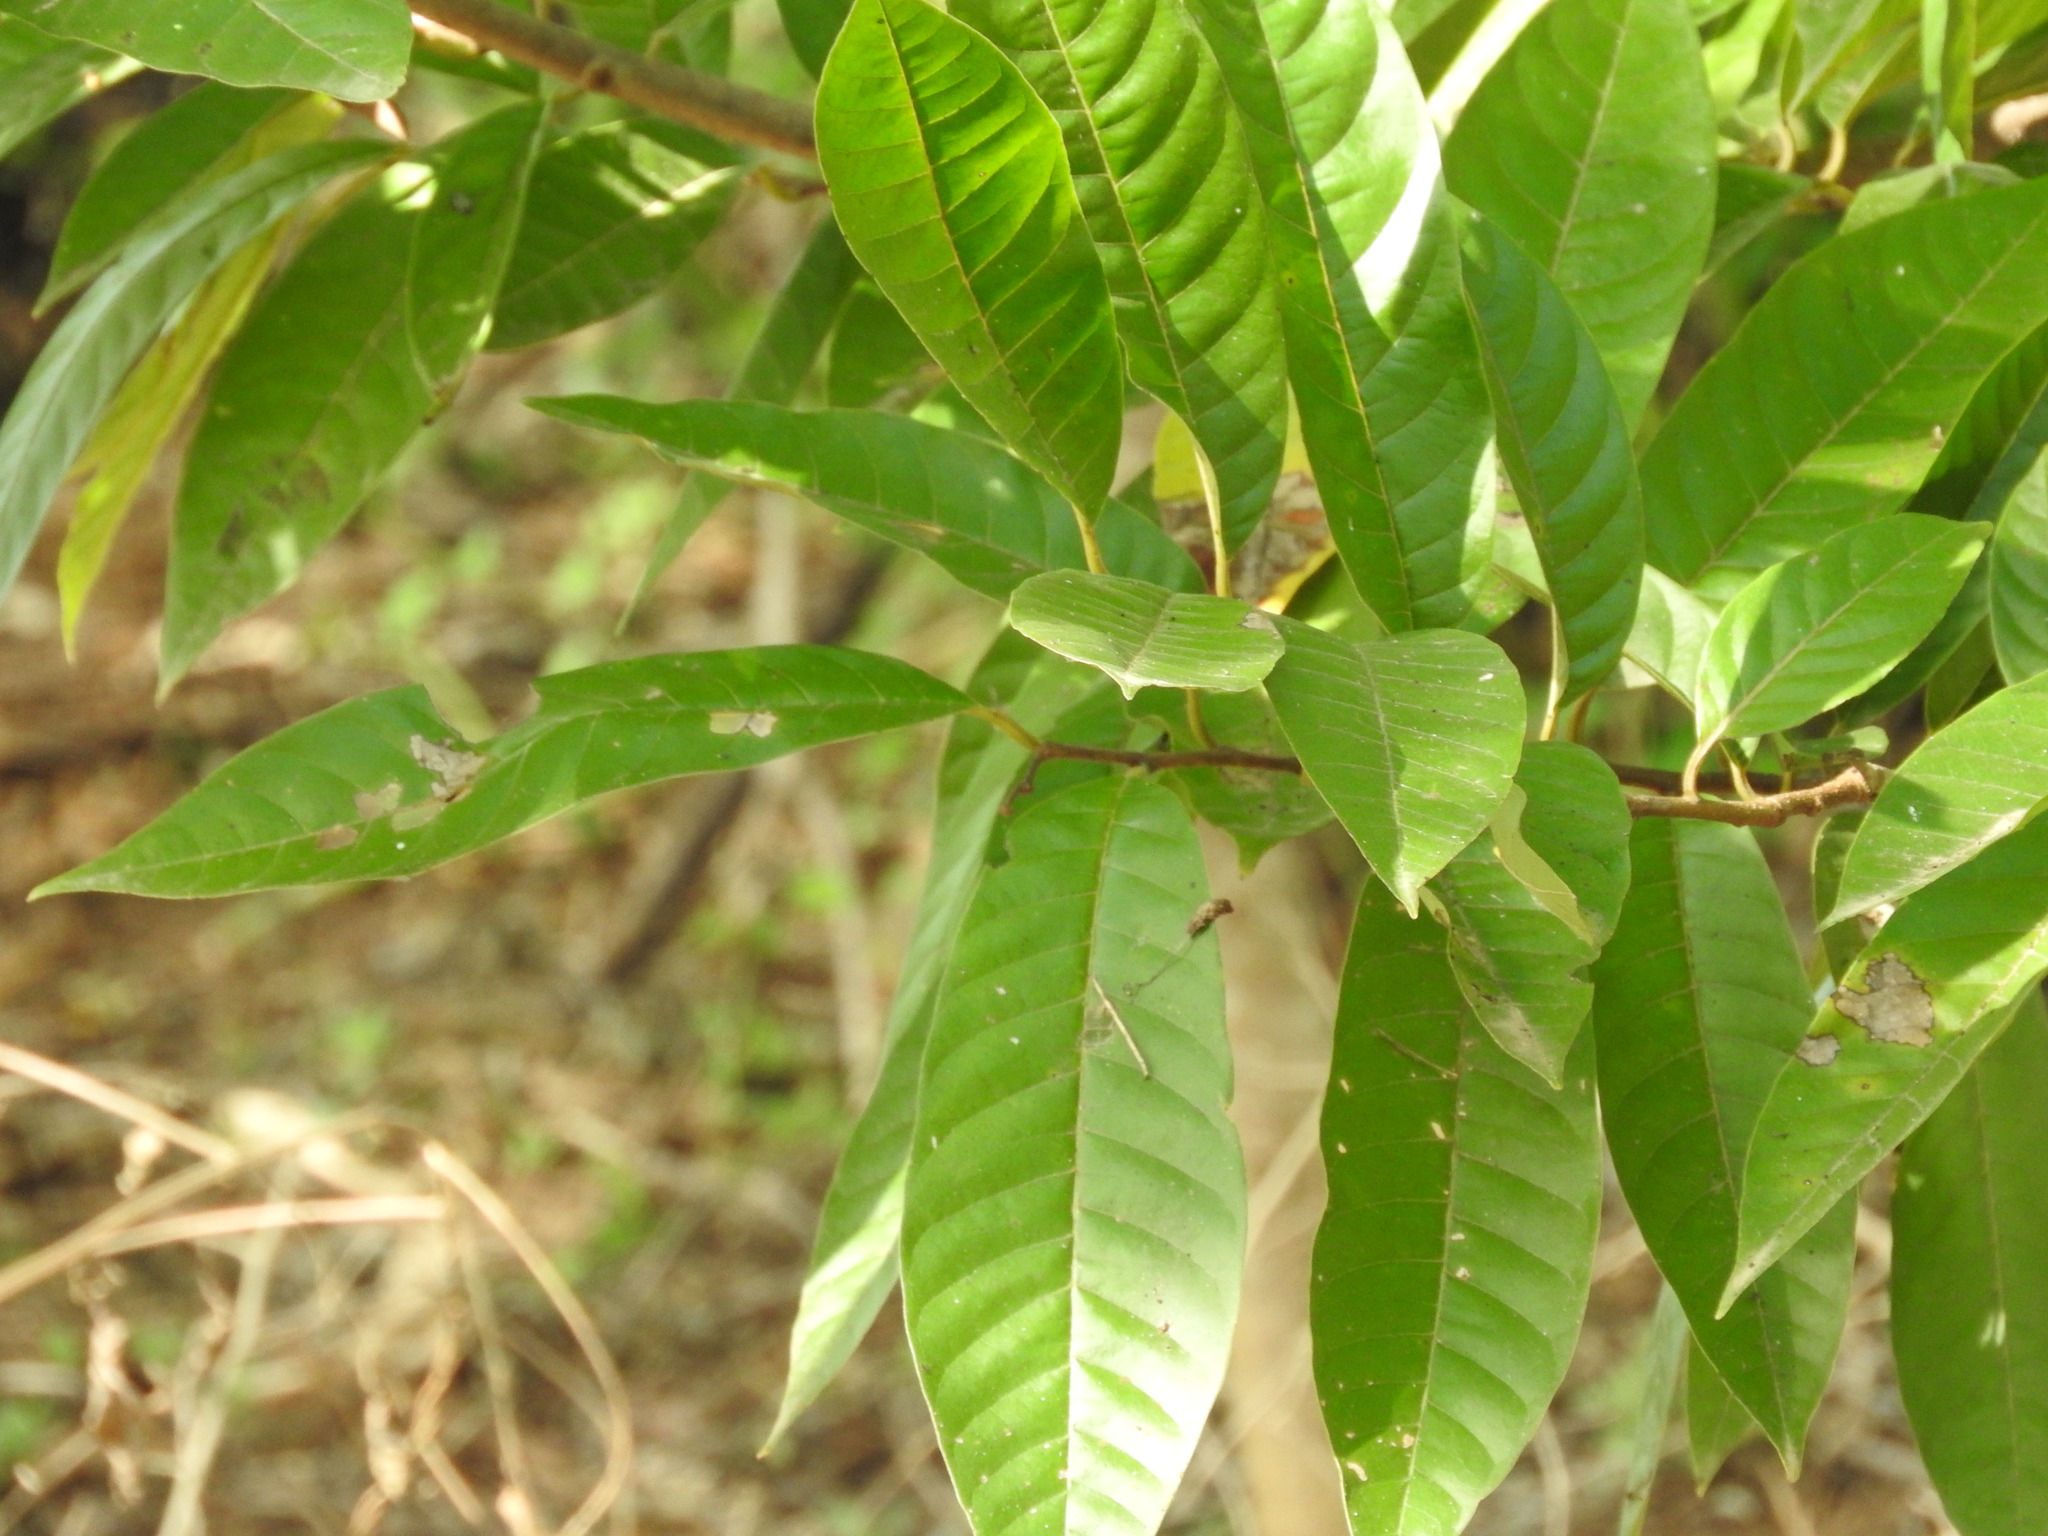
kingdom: Plantae
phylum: Tracheophyta
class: Magnoliopsida
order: Magnoliales
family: Annonaceae
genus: Annona
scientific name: Annona reticulata
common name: Custard apple
